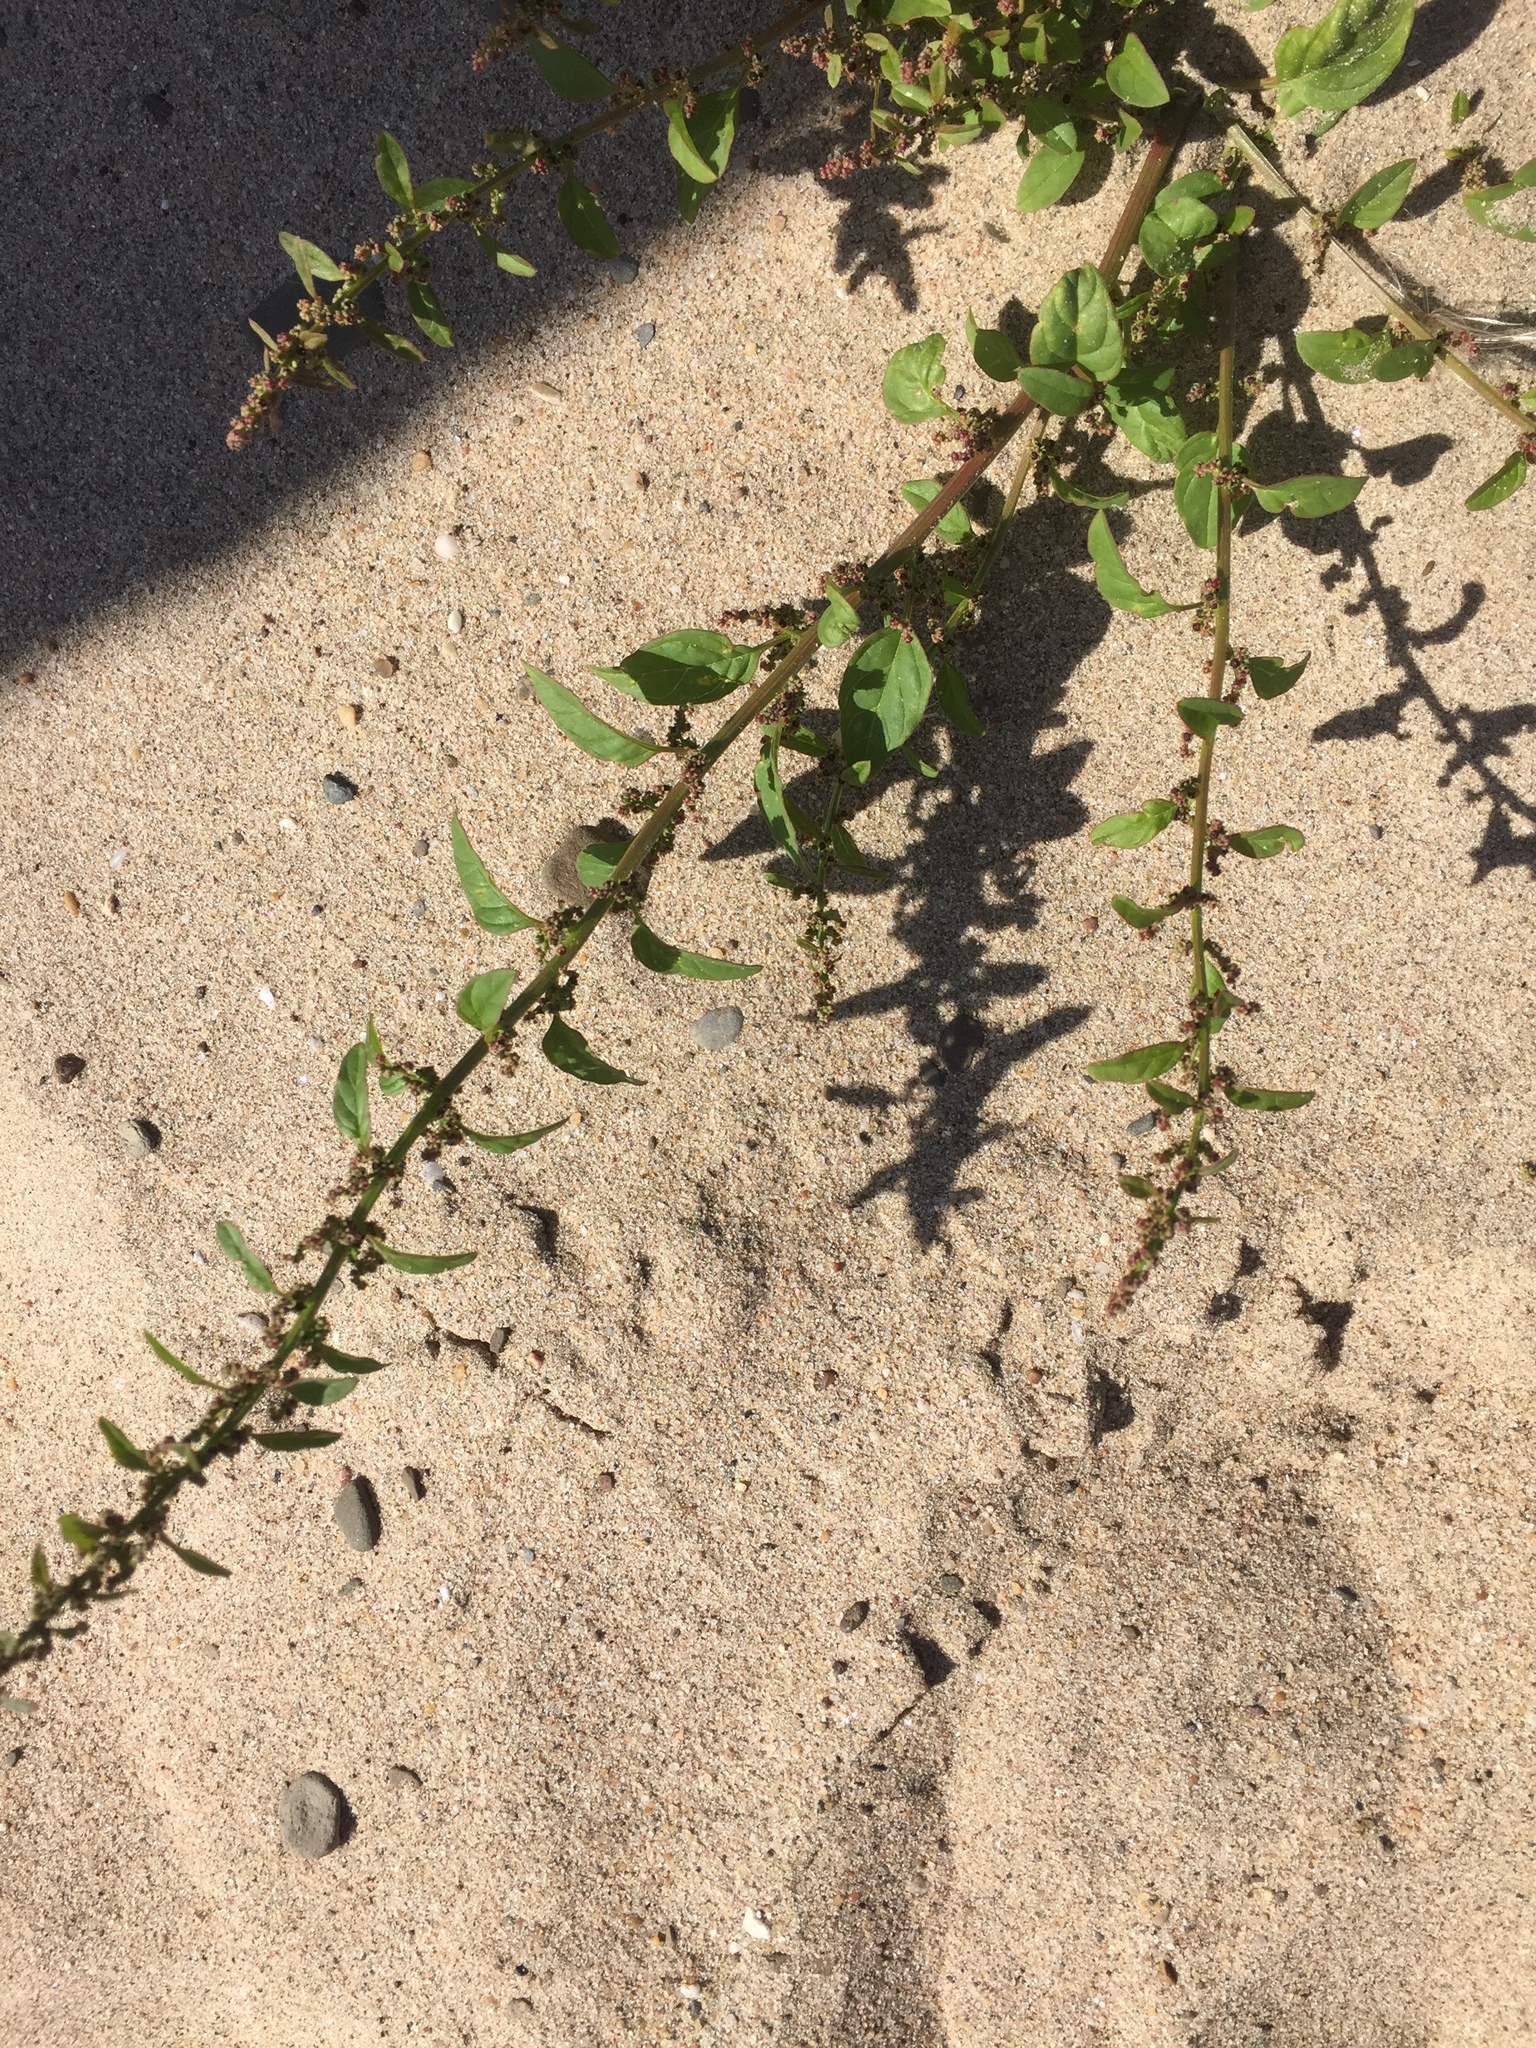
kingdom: Plantae
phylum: Tracheophyta
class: Magnoliopsida
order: Caryophyllales
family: Amaranthaceae
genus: Lipandra
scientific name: Lipandra polysperma
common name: Many-seed goosefoot
